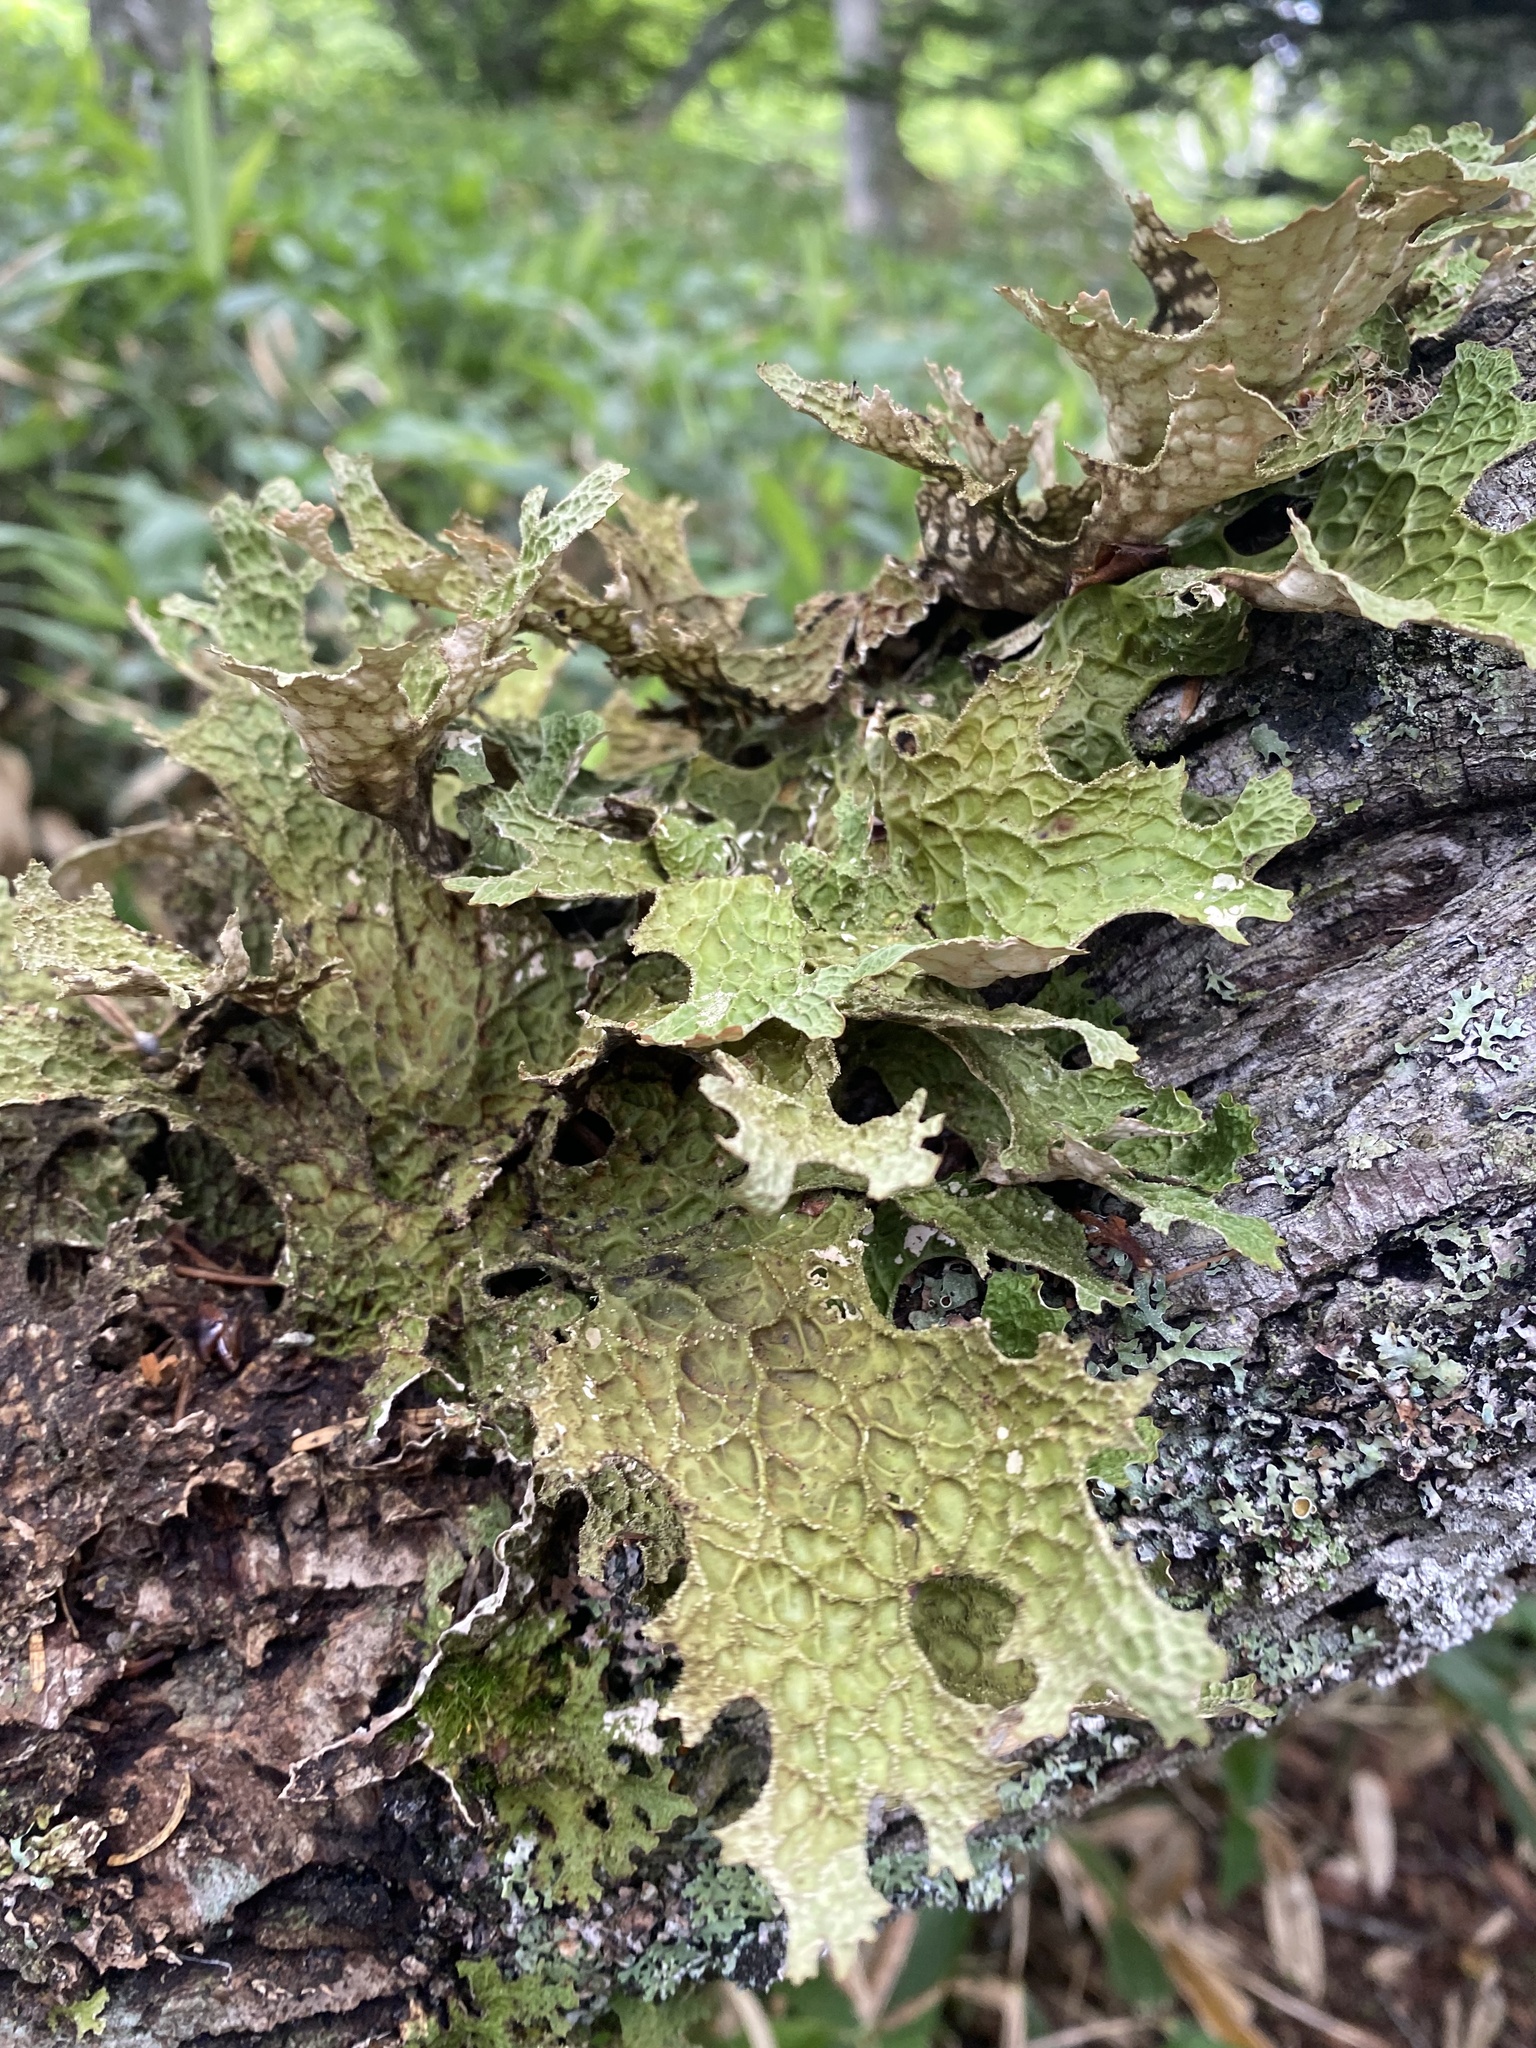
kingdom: Fungi
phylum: Ascomycota
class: Lecanoromycetes
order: Peltigerales
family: Lobariaceae
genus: Lobaria
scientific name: Lobaria pulmonaria
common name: Lungwort
